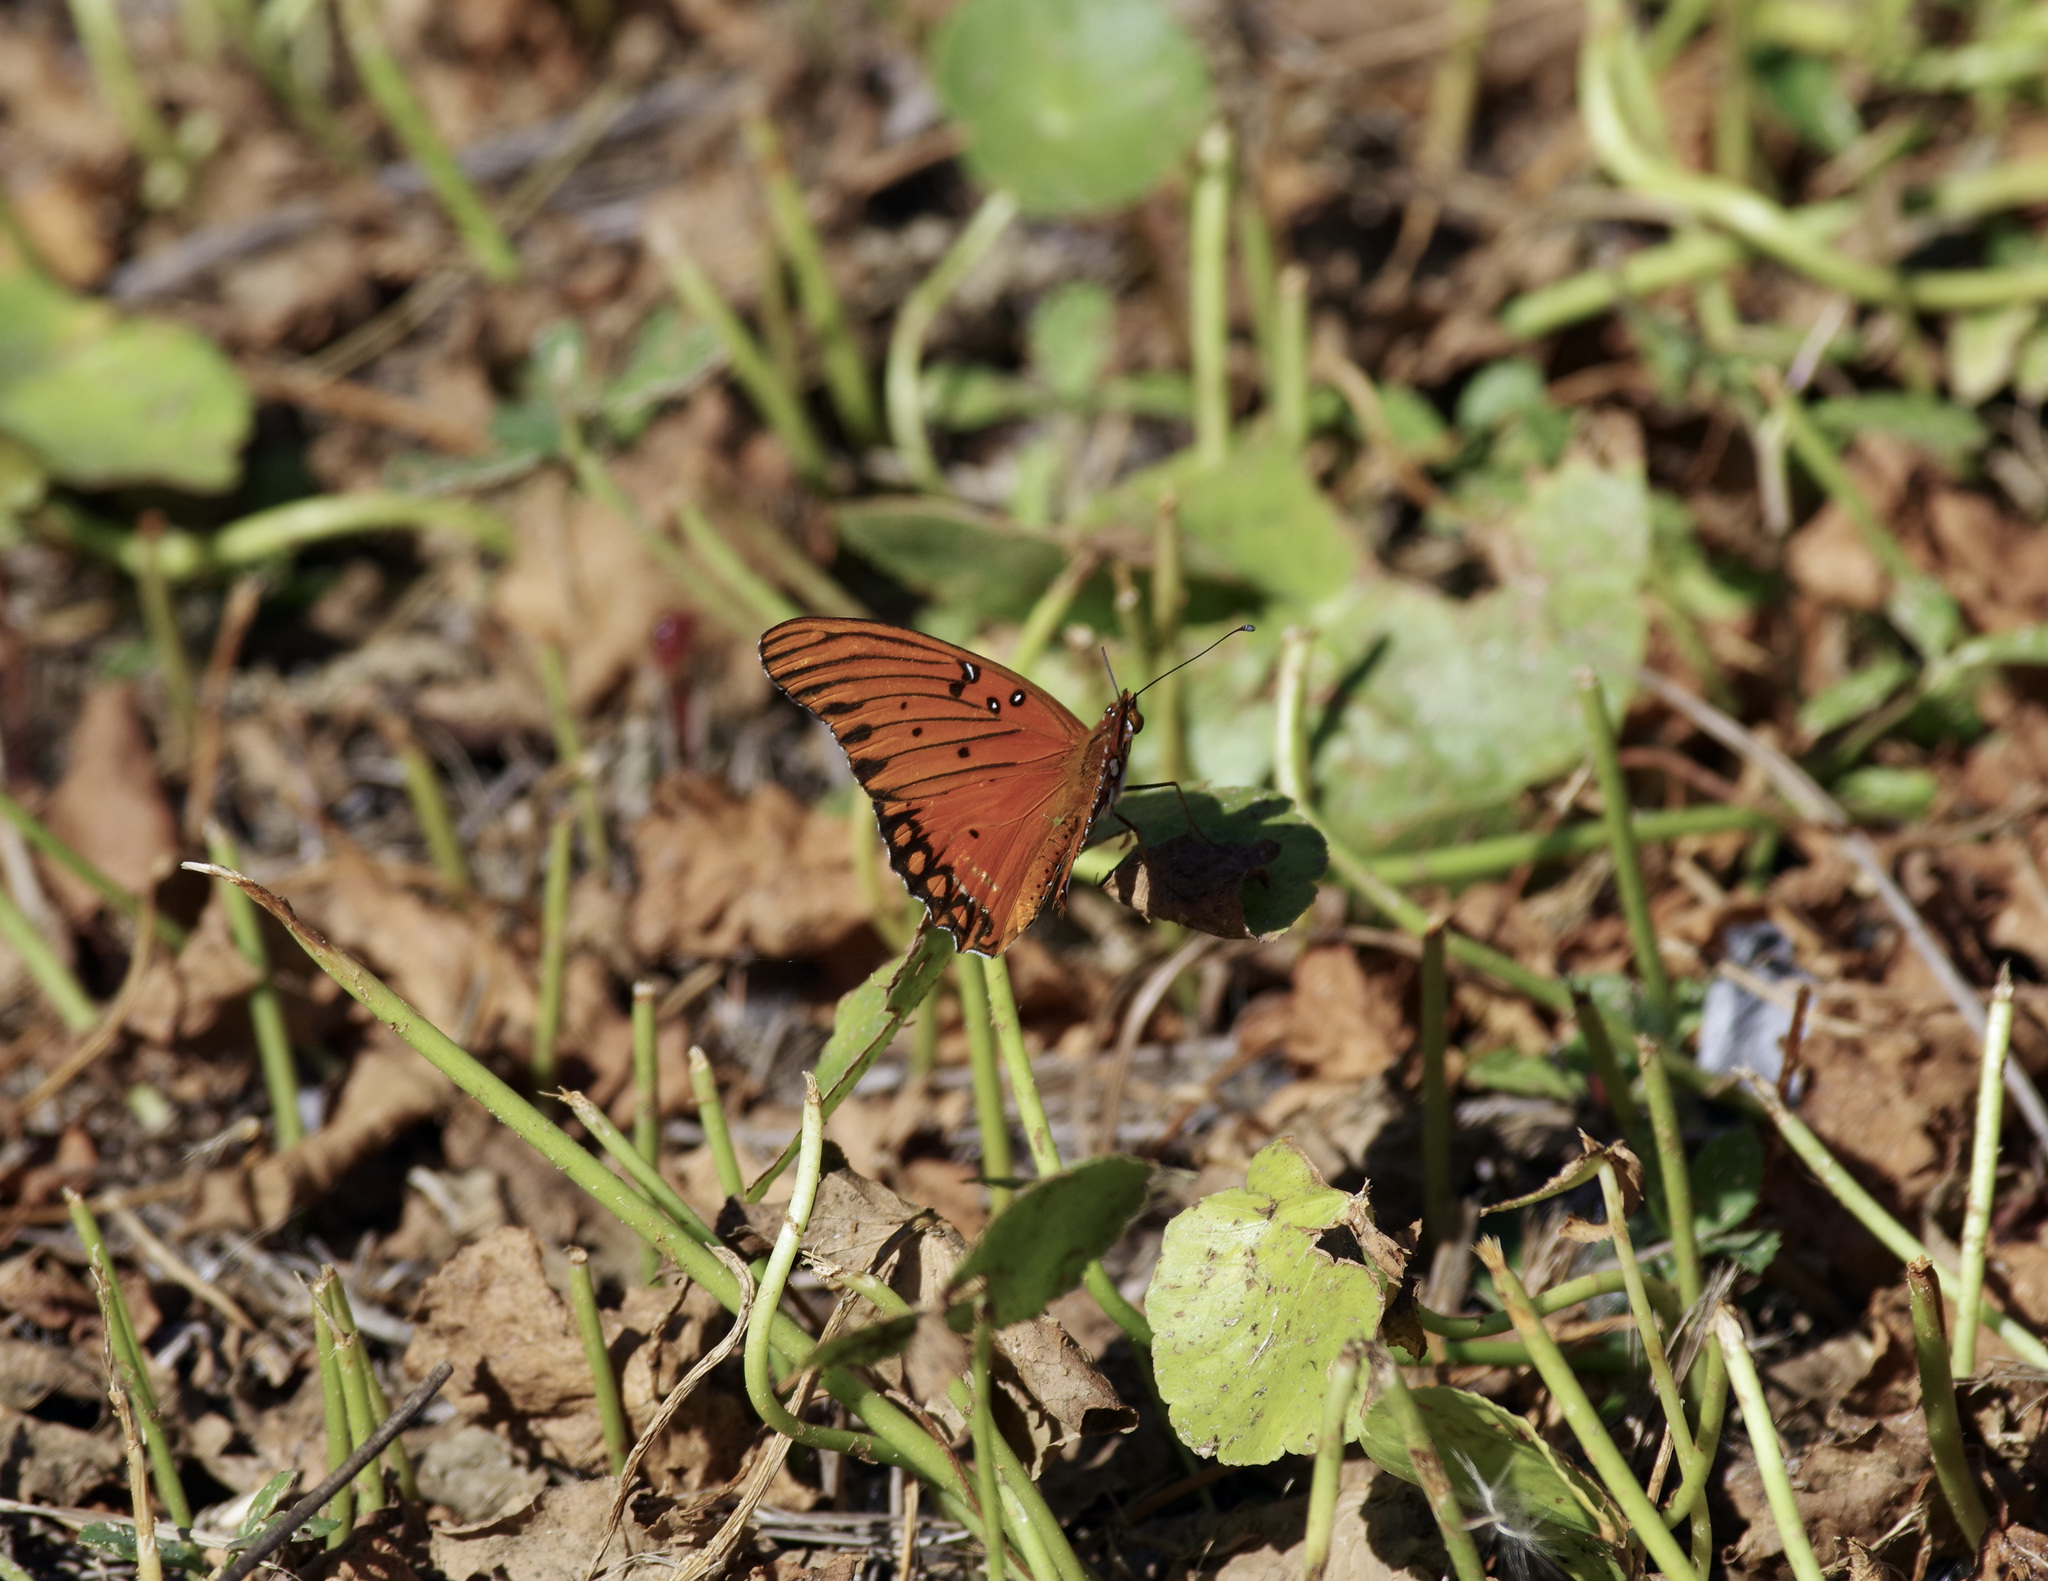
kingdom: Animalia
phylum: Arthropoda
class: Insecta
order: Lepidoptera
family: Nymphalidae
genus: Dione
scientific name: Dione vanillae
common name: Gulf fritillary
